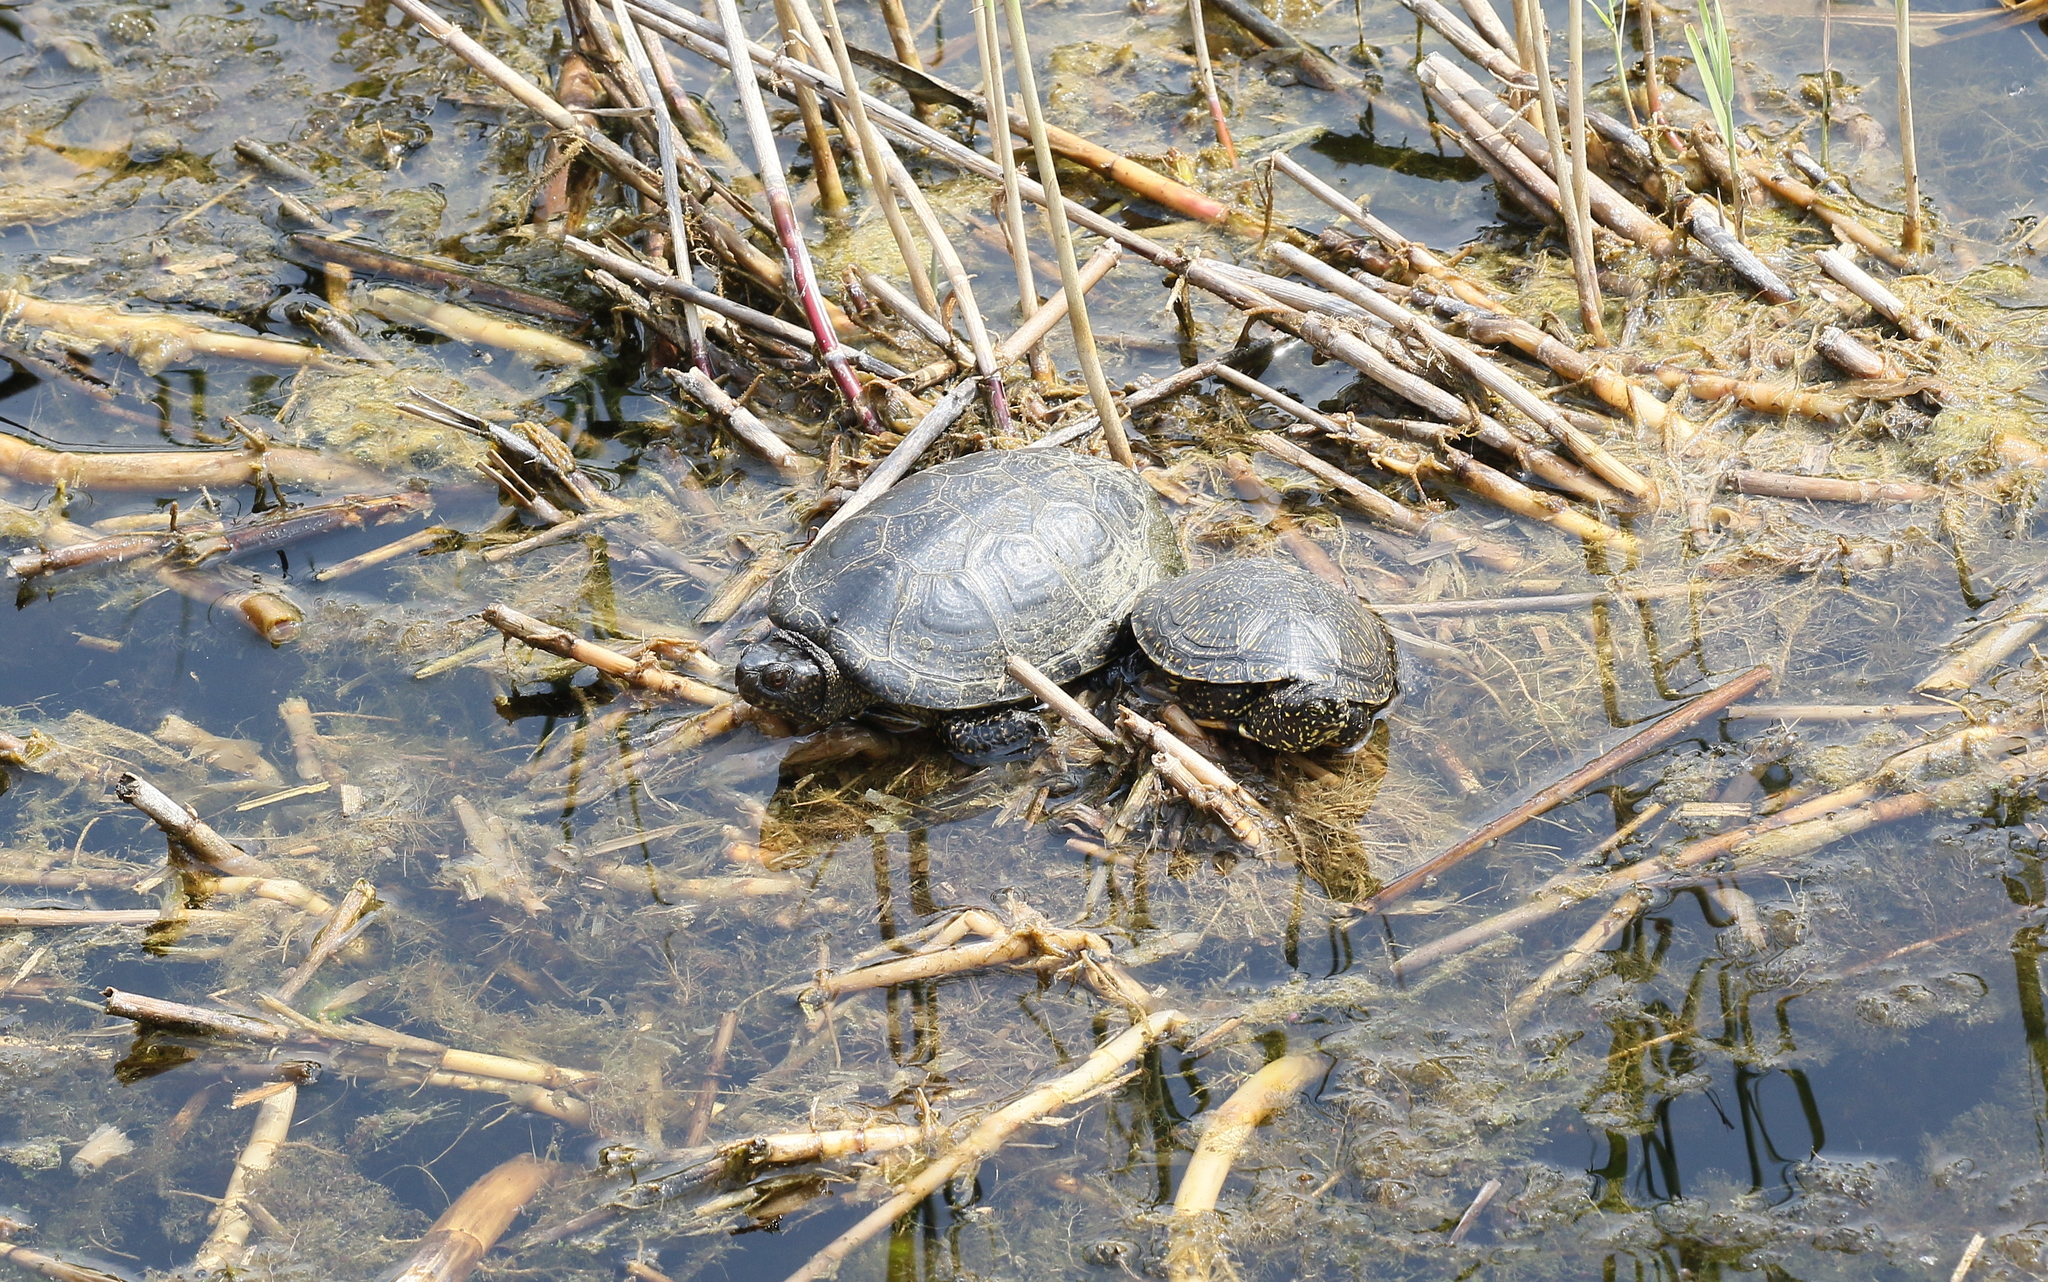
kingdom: Animalia
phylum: Chordata
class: Testudines
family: Emydidae
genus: Emys
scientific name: Emys orbicularis
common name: European pond turtle
